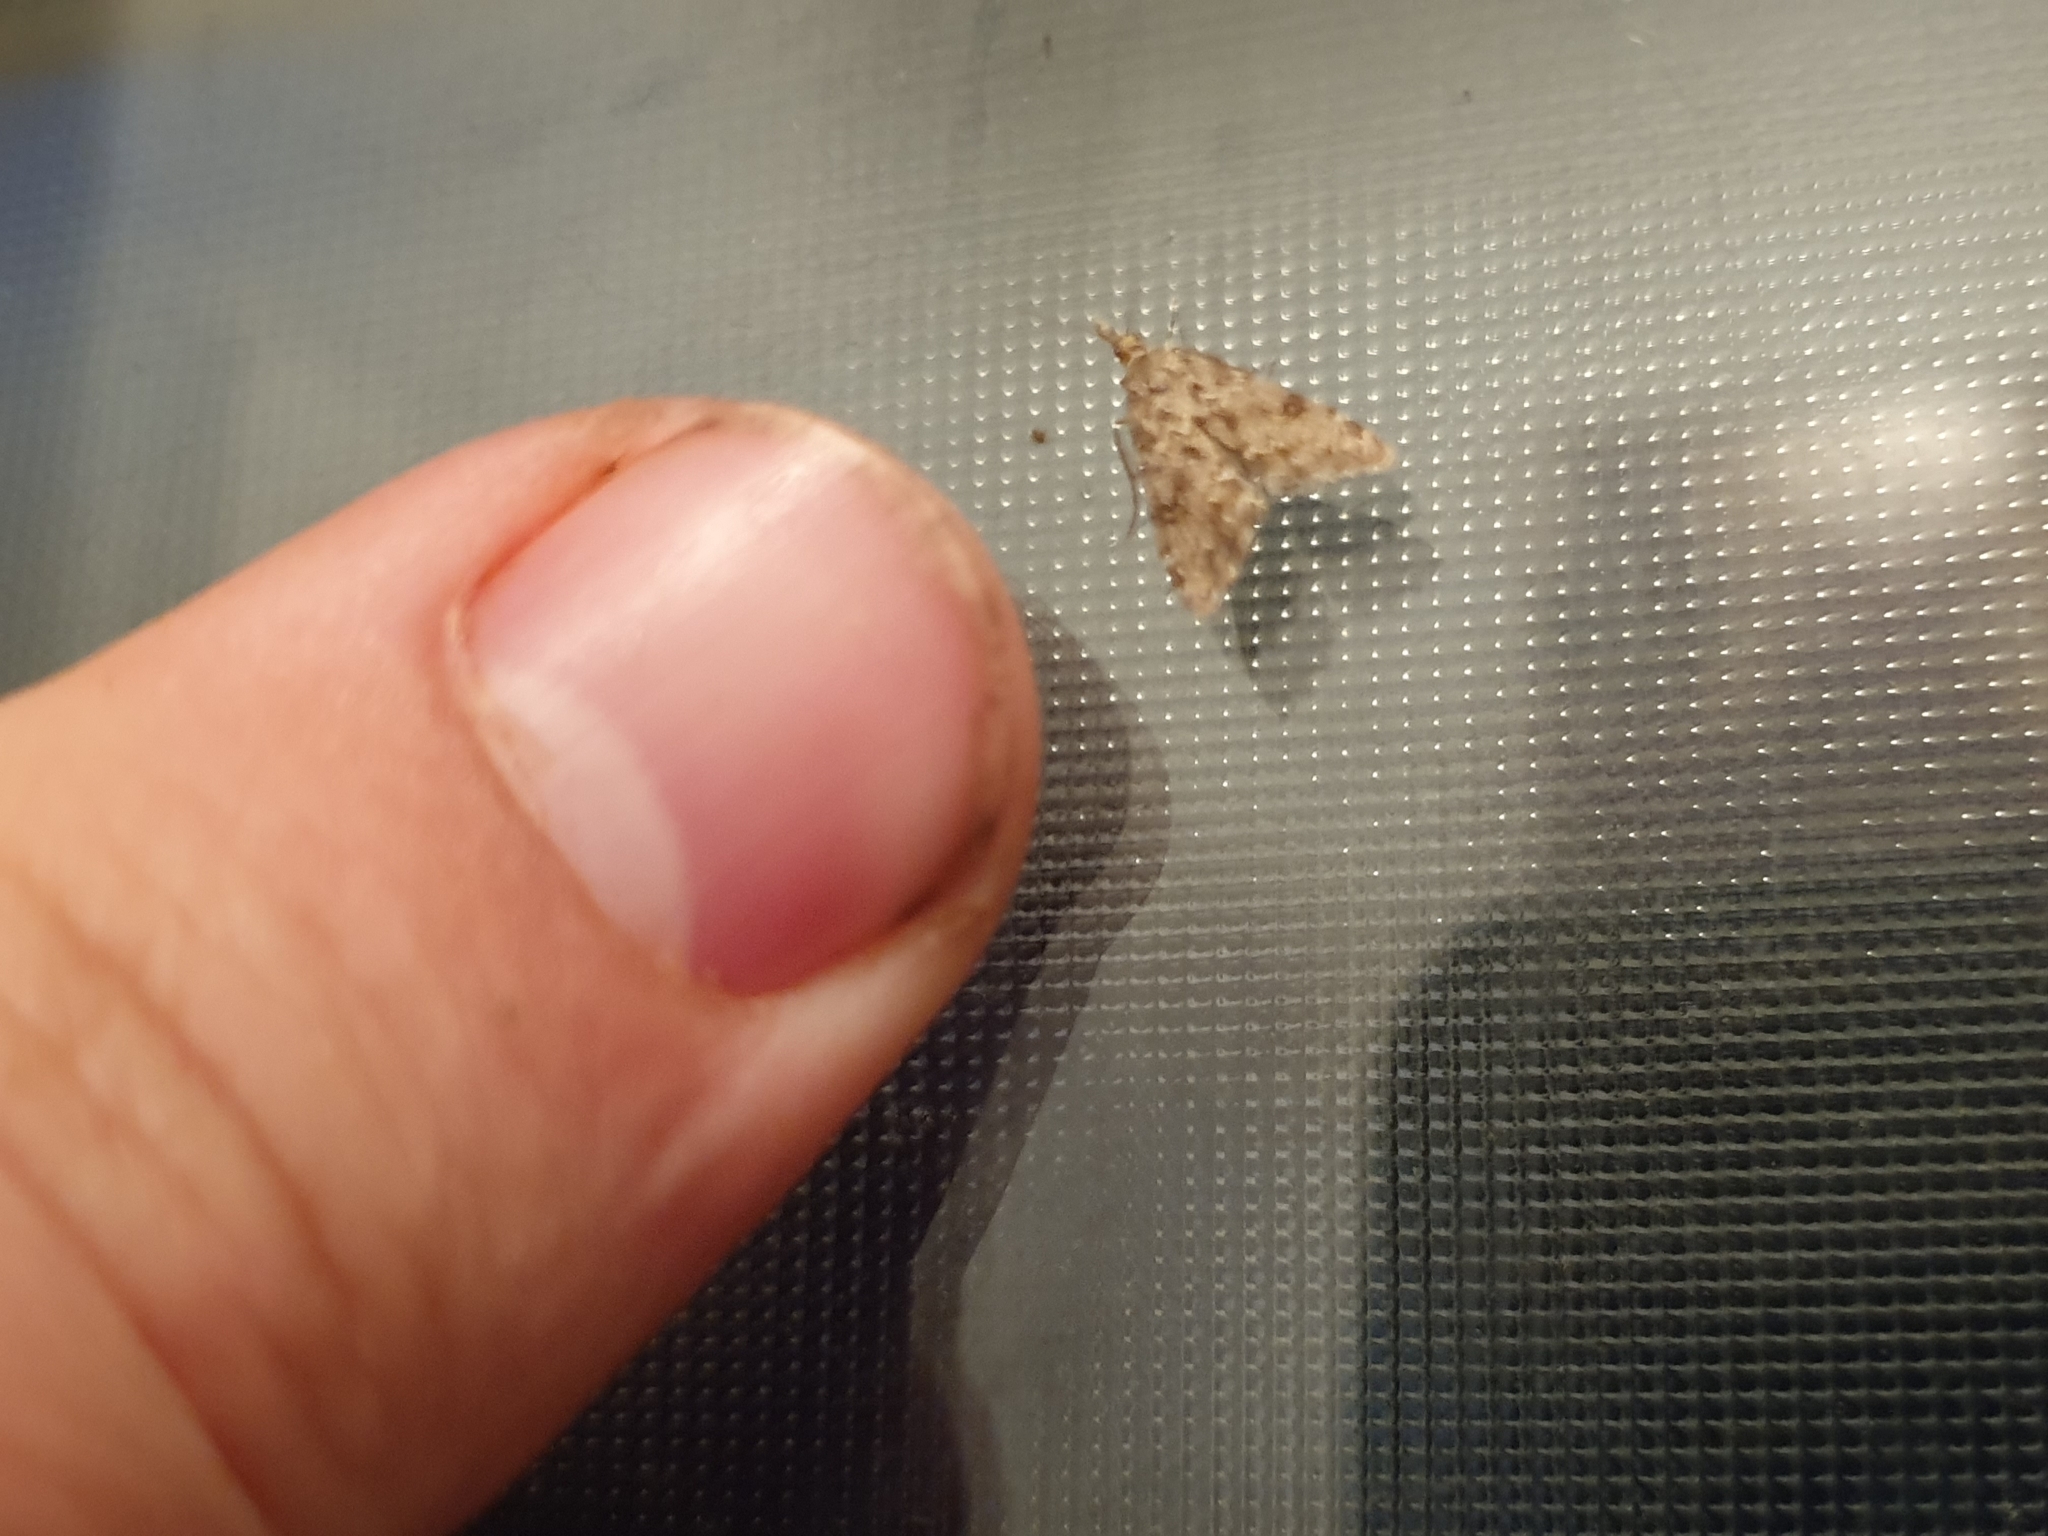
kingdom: Animalia
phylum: Arthropoda
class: Insecta
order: Lepidoptera
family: Crambidae
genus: Glaucocharis
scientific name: Glaucocharis elaina
